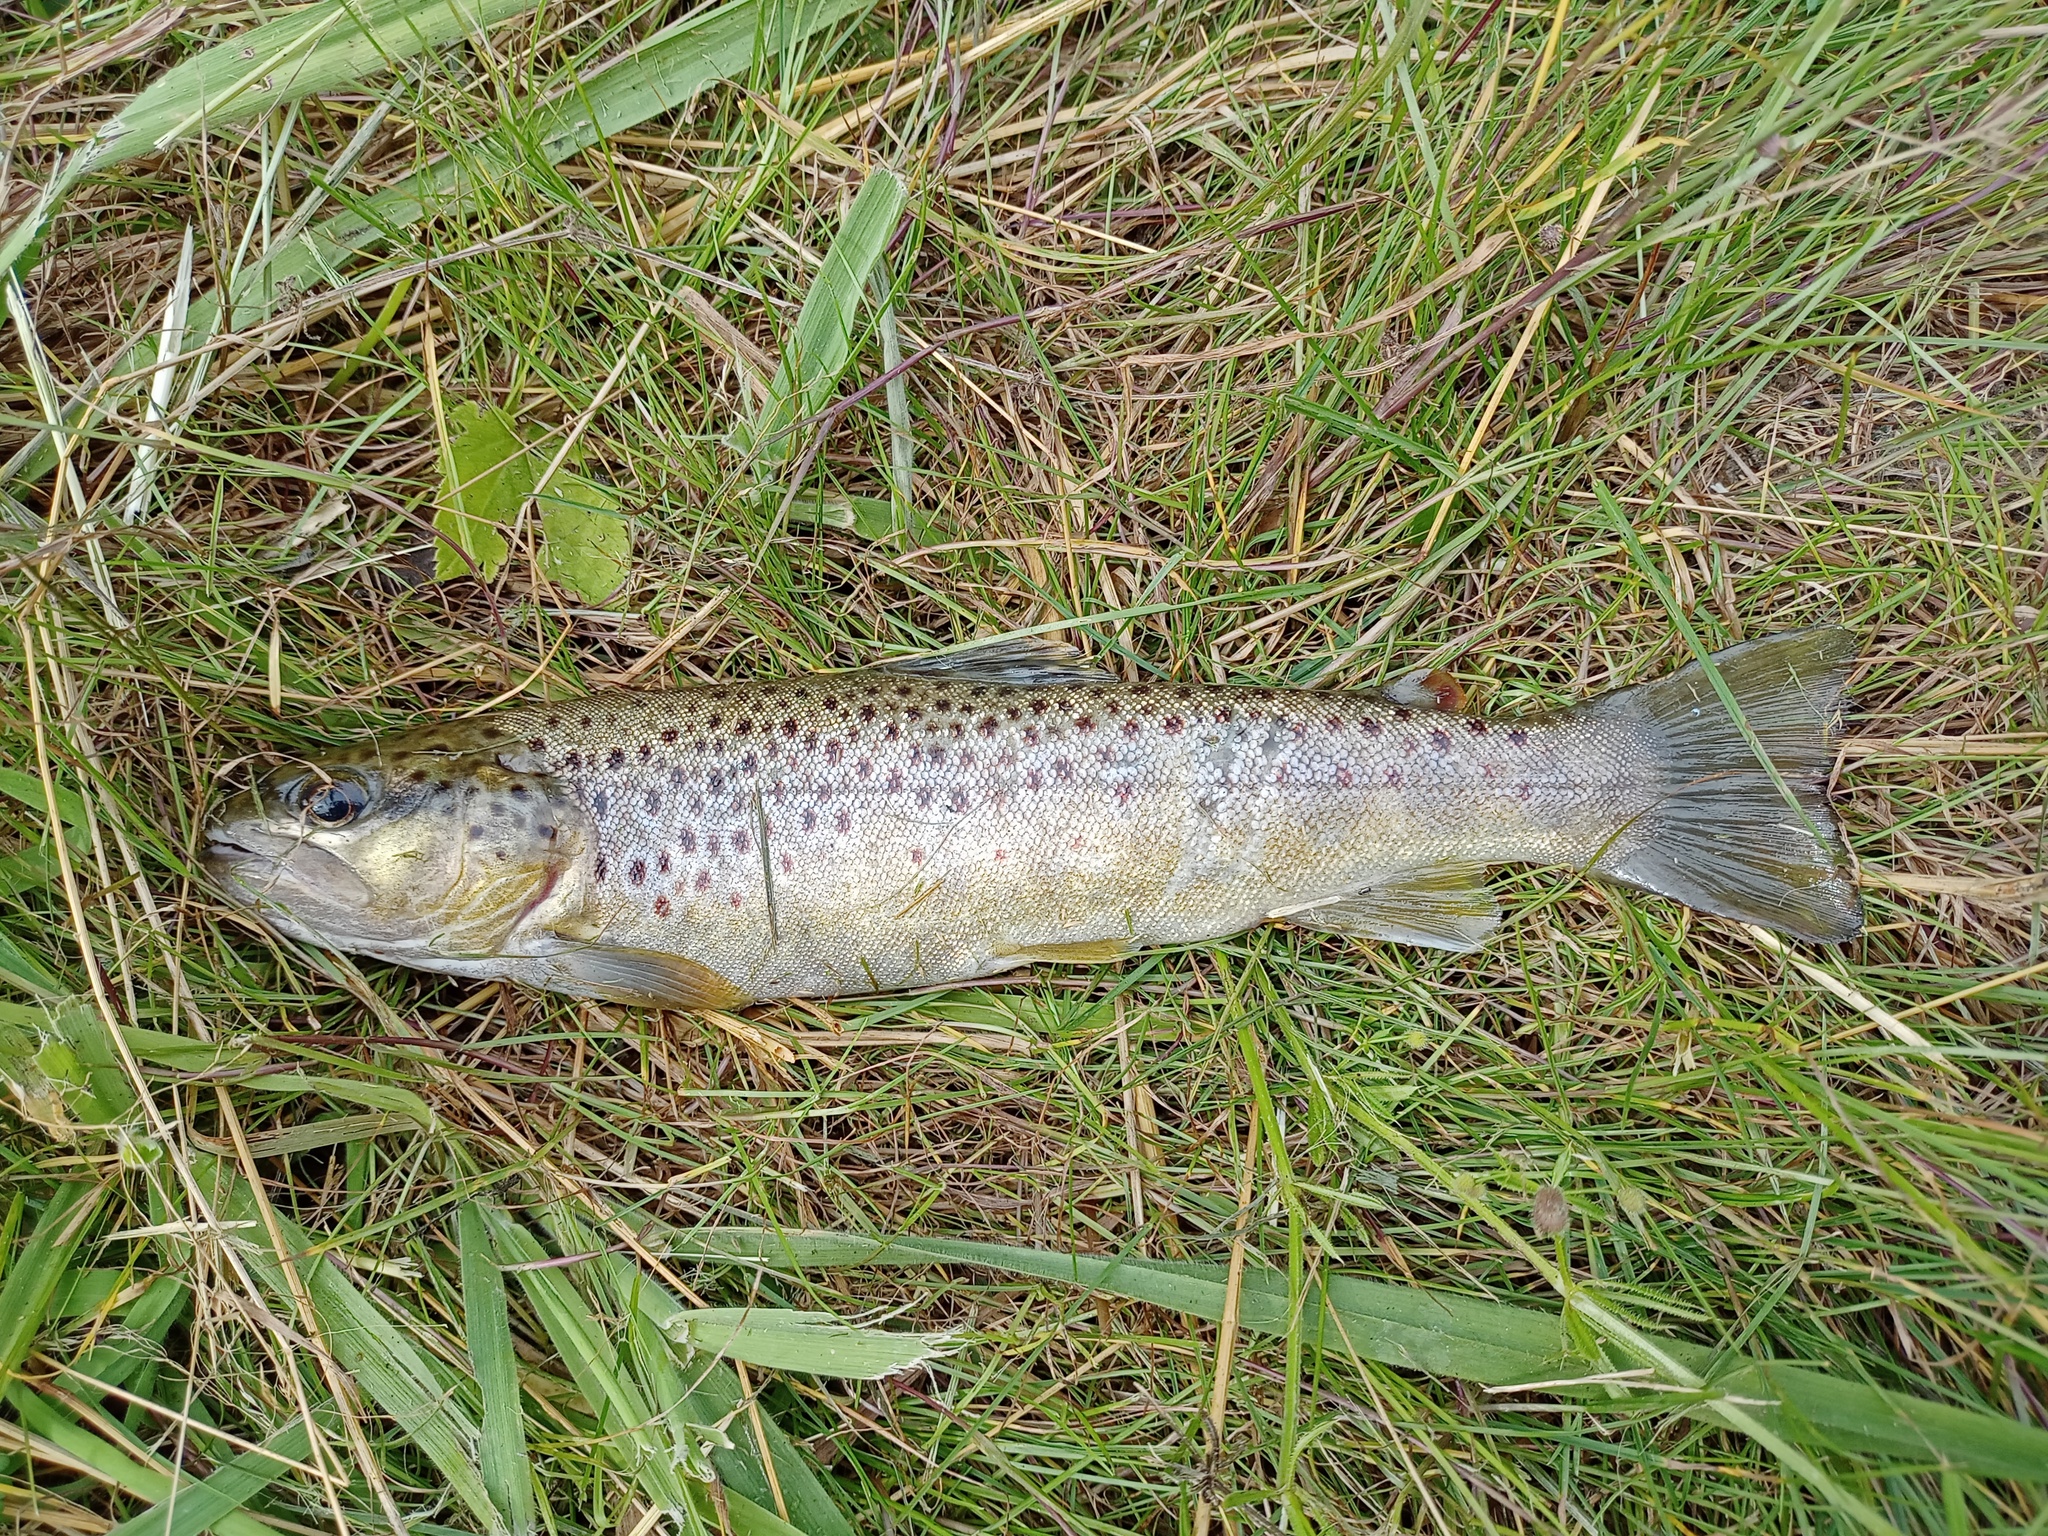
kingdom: Animalia
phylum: Chordata
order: Salmoniformes
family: Salmonidae
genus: Salmo
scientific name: Salmo trutta
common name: Brown trout
